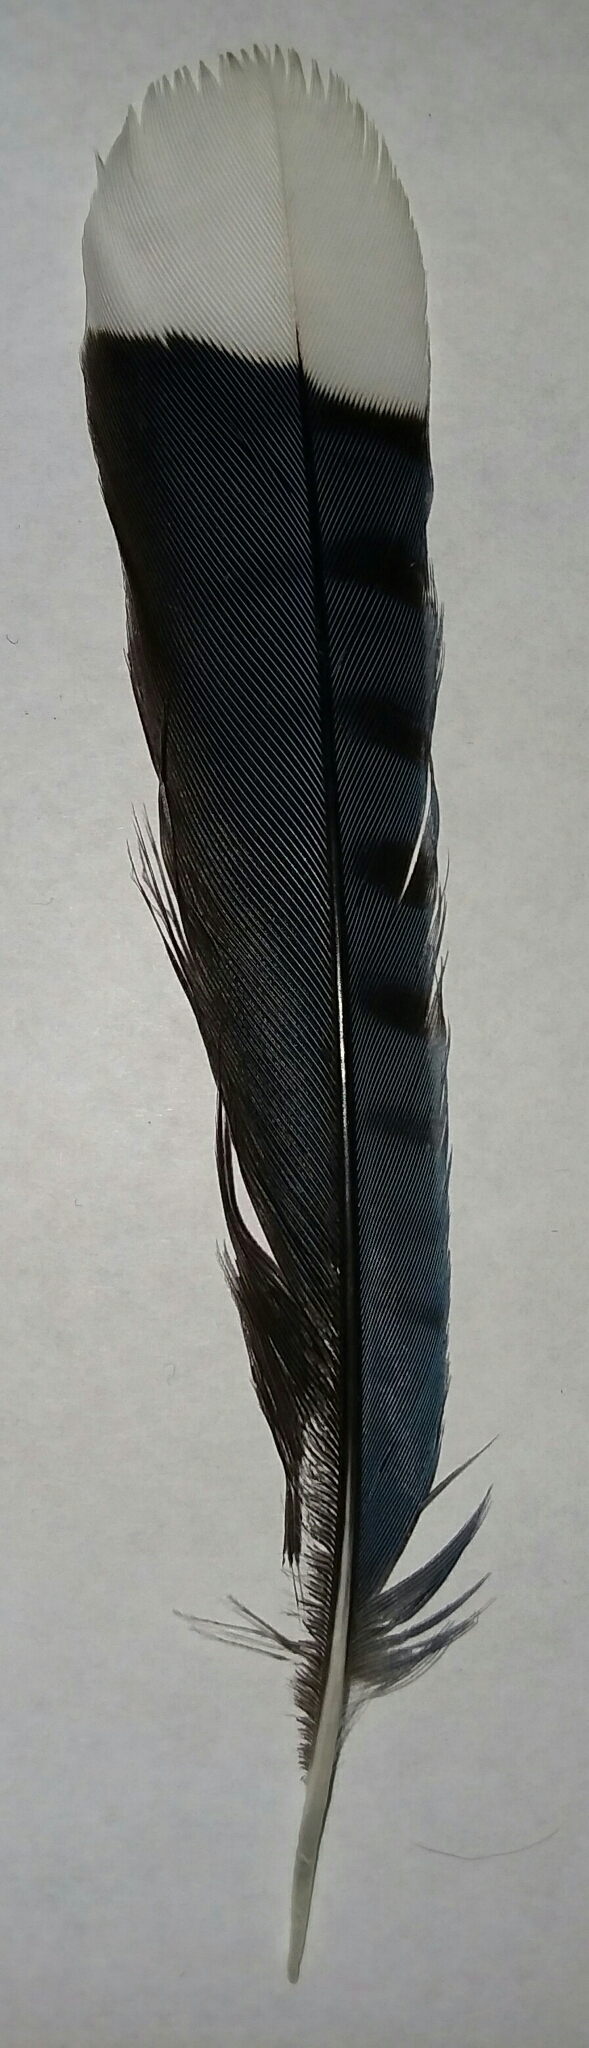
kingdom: Animalia
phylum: Chordata
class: Aves
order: Passeriformes
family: Corvidae
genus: Cyanocitta
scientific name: Cyanocitta cristata
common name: Blue jay
